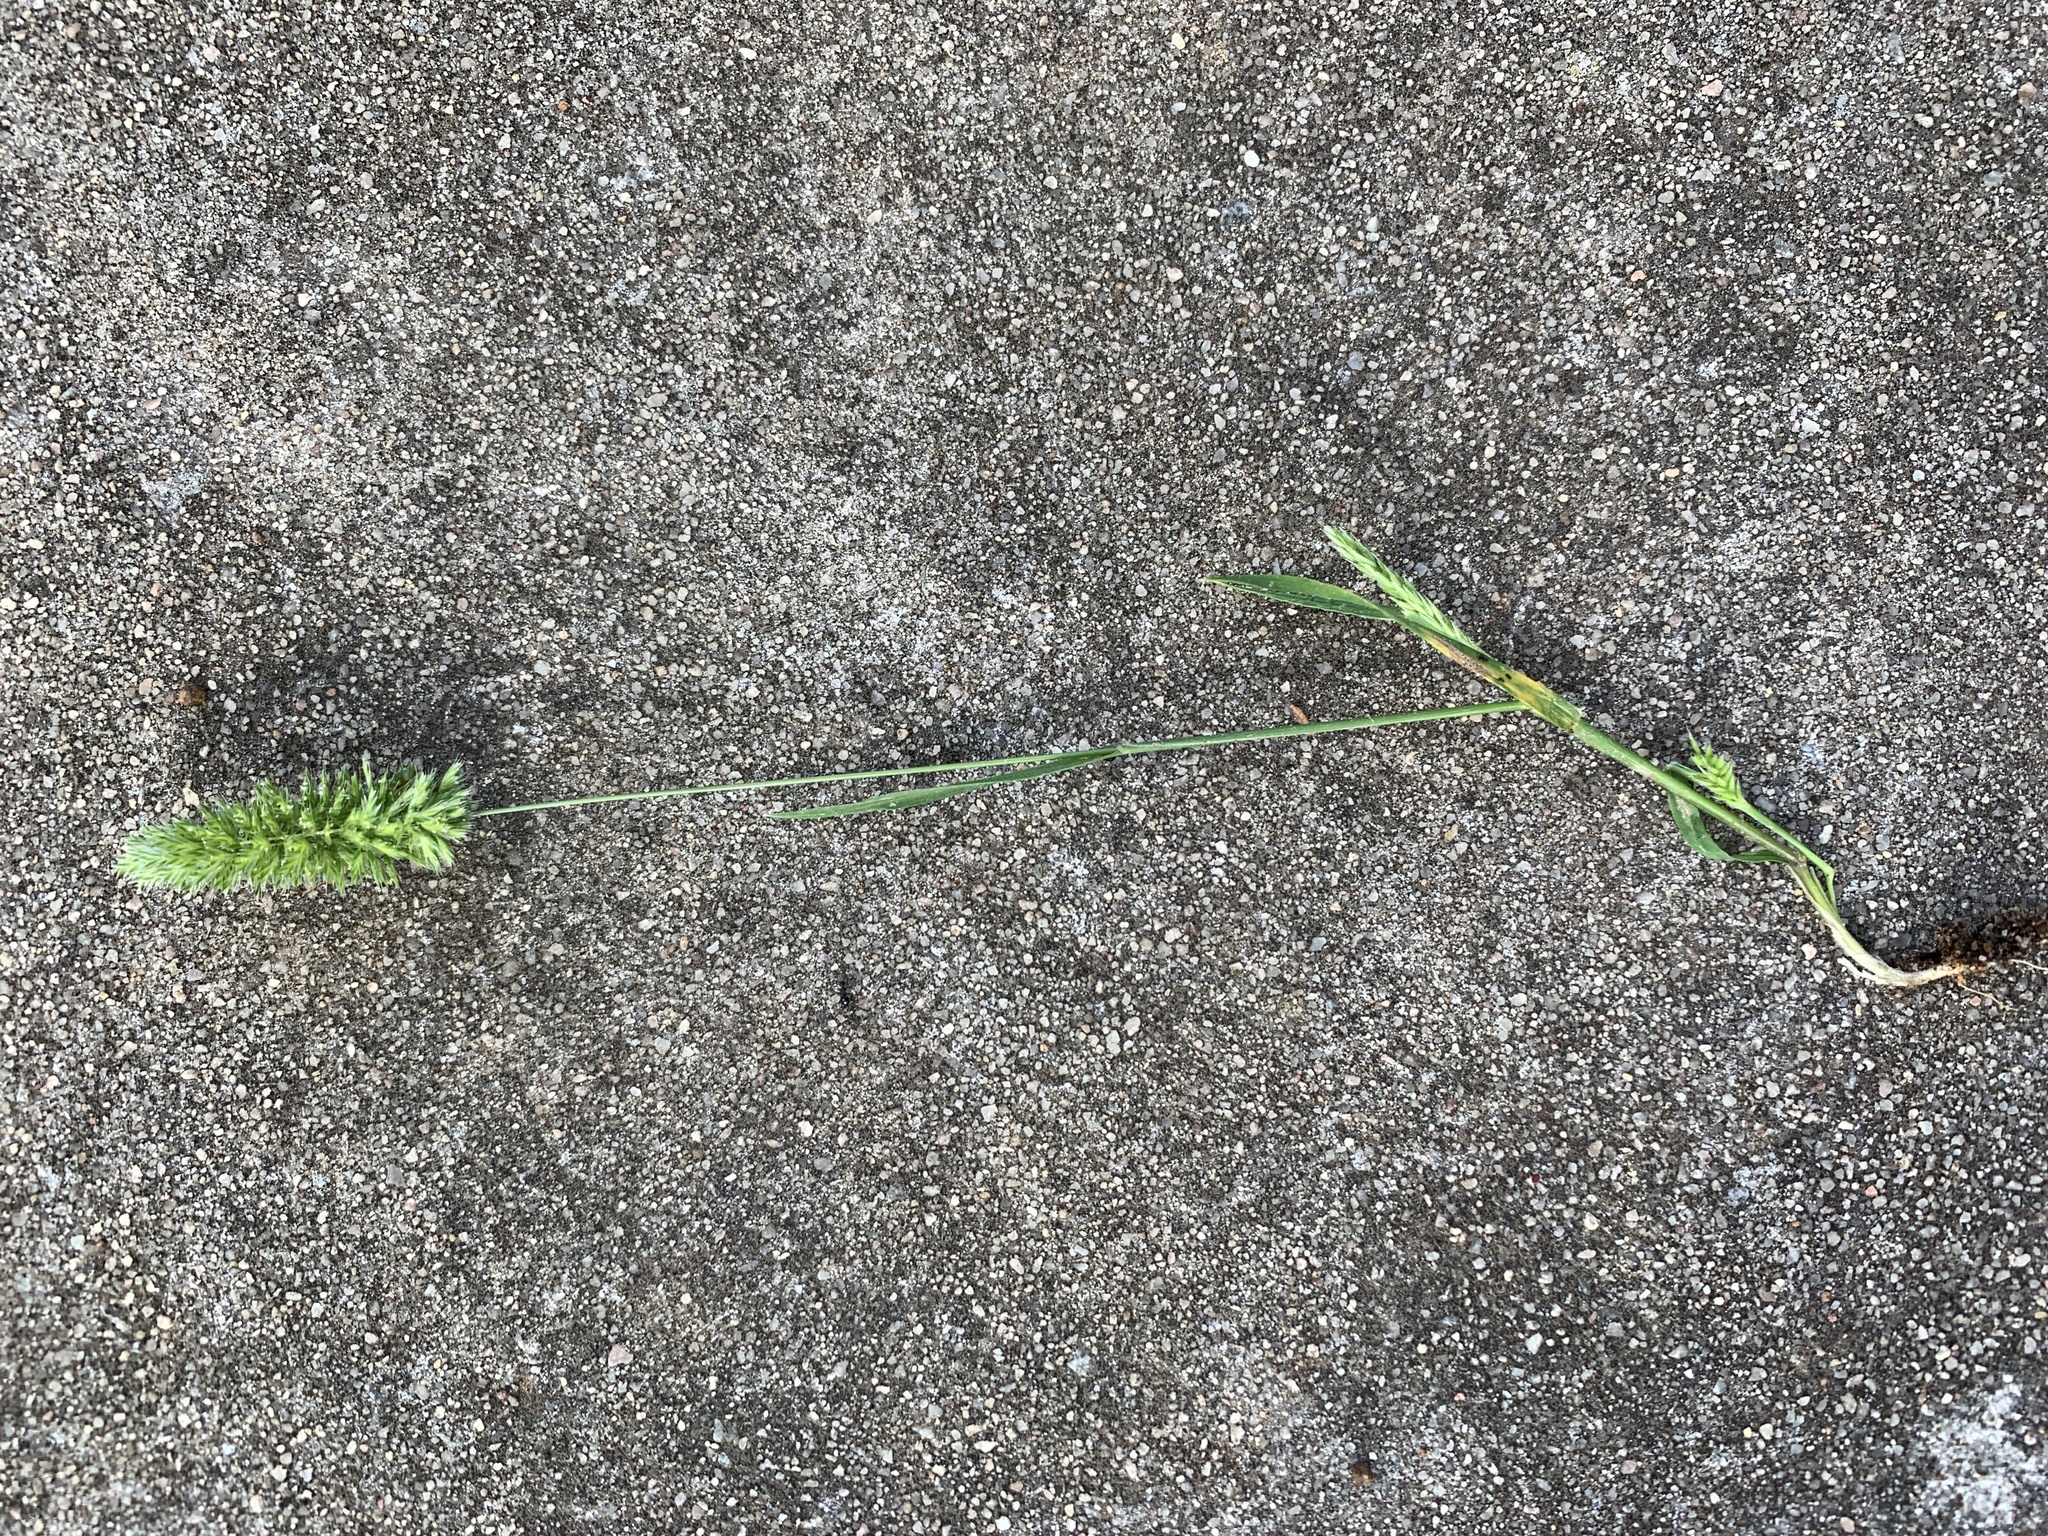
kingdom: Plantae
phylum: Tracheophyta
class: Liliopsida
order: Poales
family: Poaceae
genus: Rostraria
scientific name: Rostraria cristata
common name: Mediterranean hair-grass
